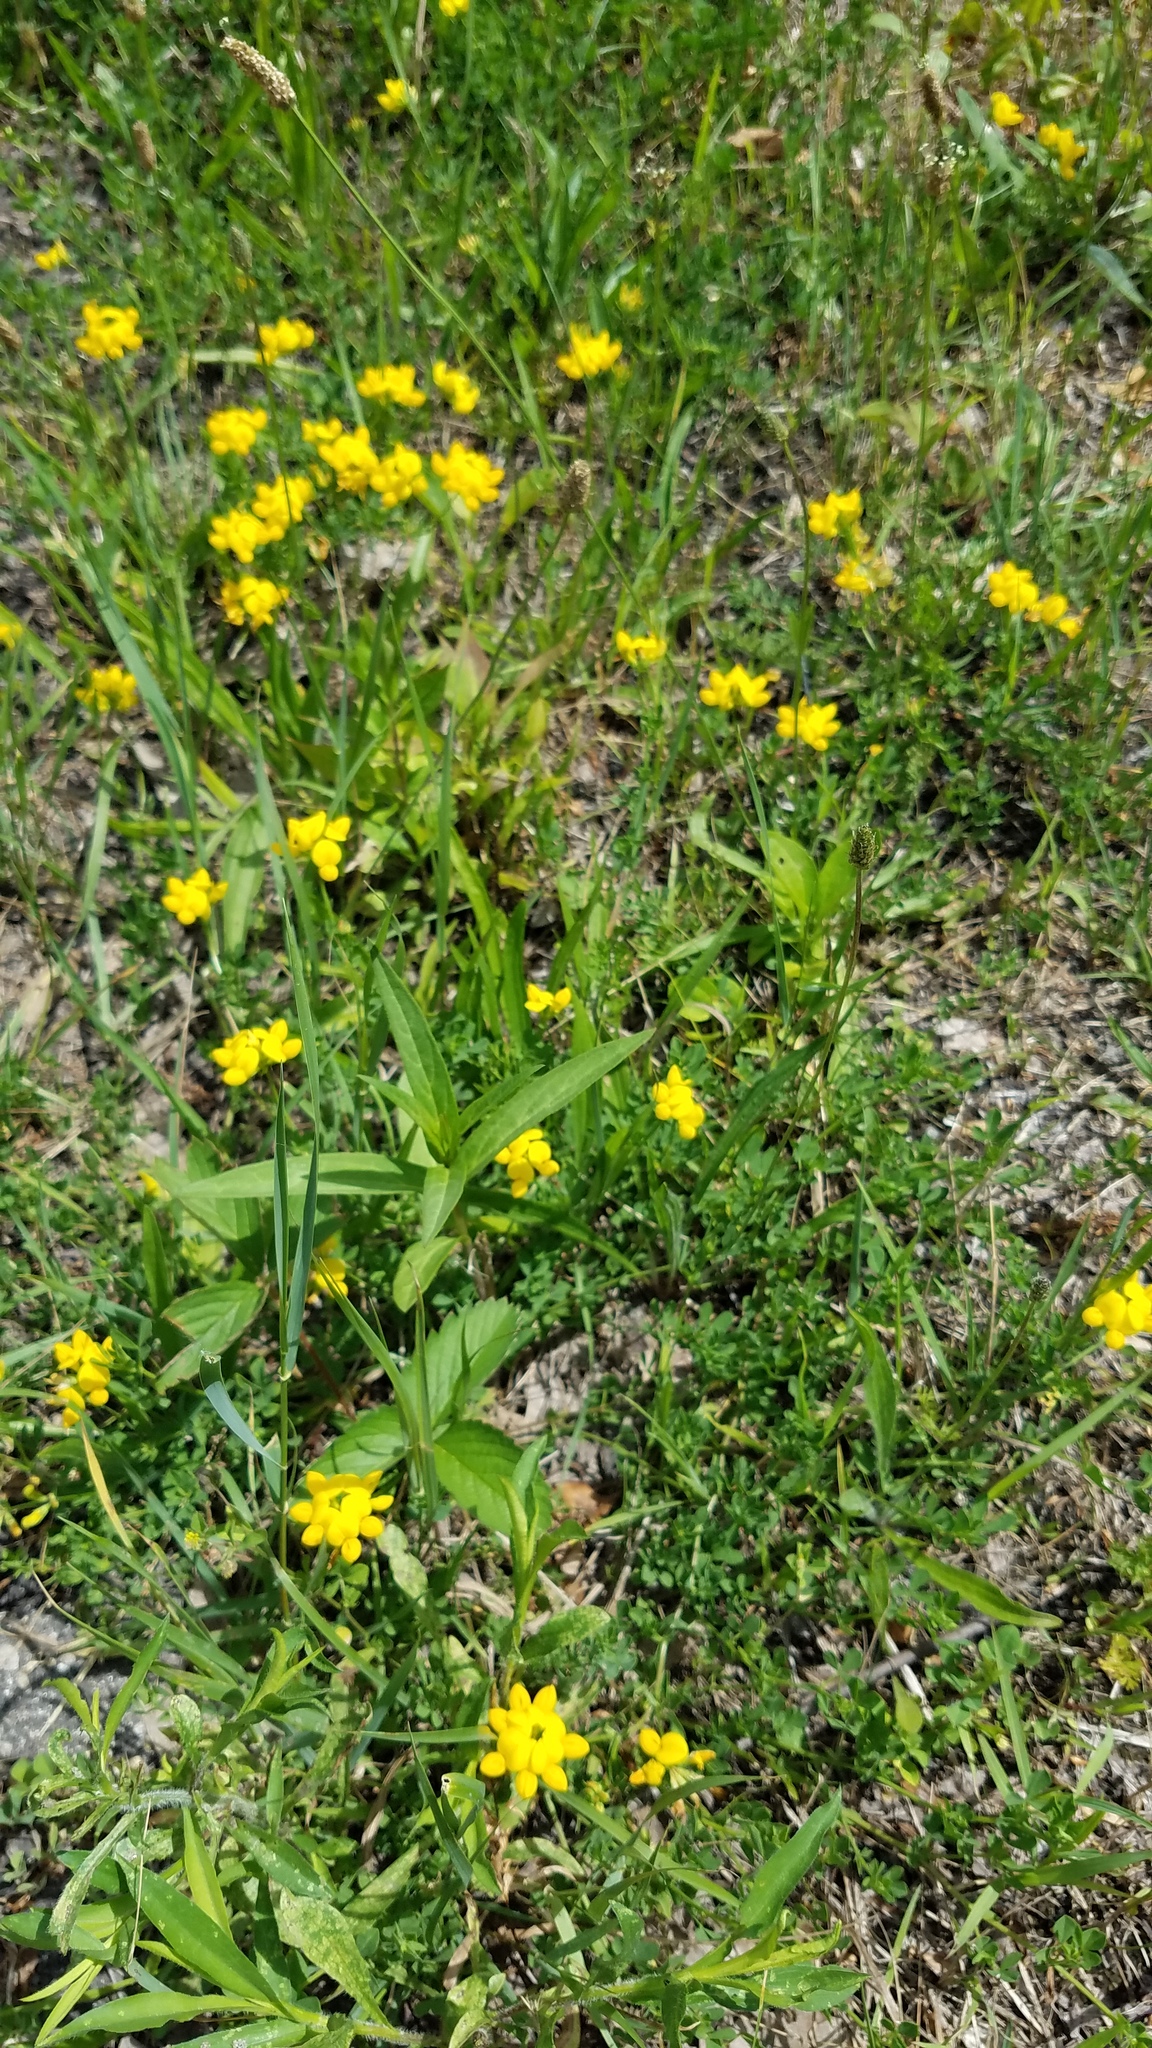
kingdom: Plantae
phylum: Tracheophyta
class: Magnoliopsida
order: Fabales
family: Fabaceae
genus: Lotus
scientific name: Lotus corniculatus
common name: Common bird's-foot-trefoil
